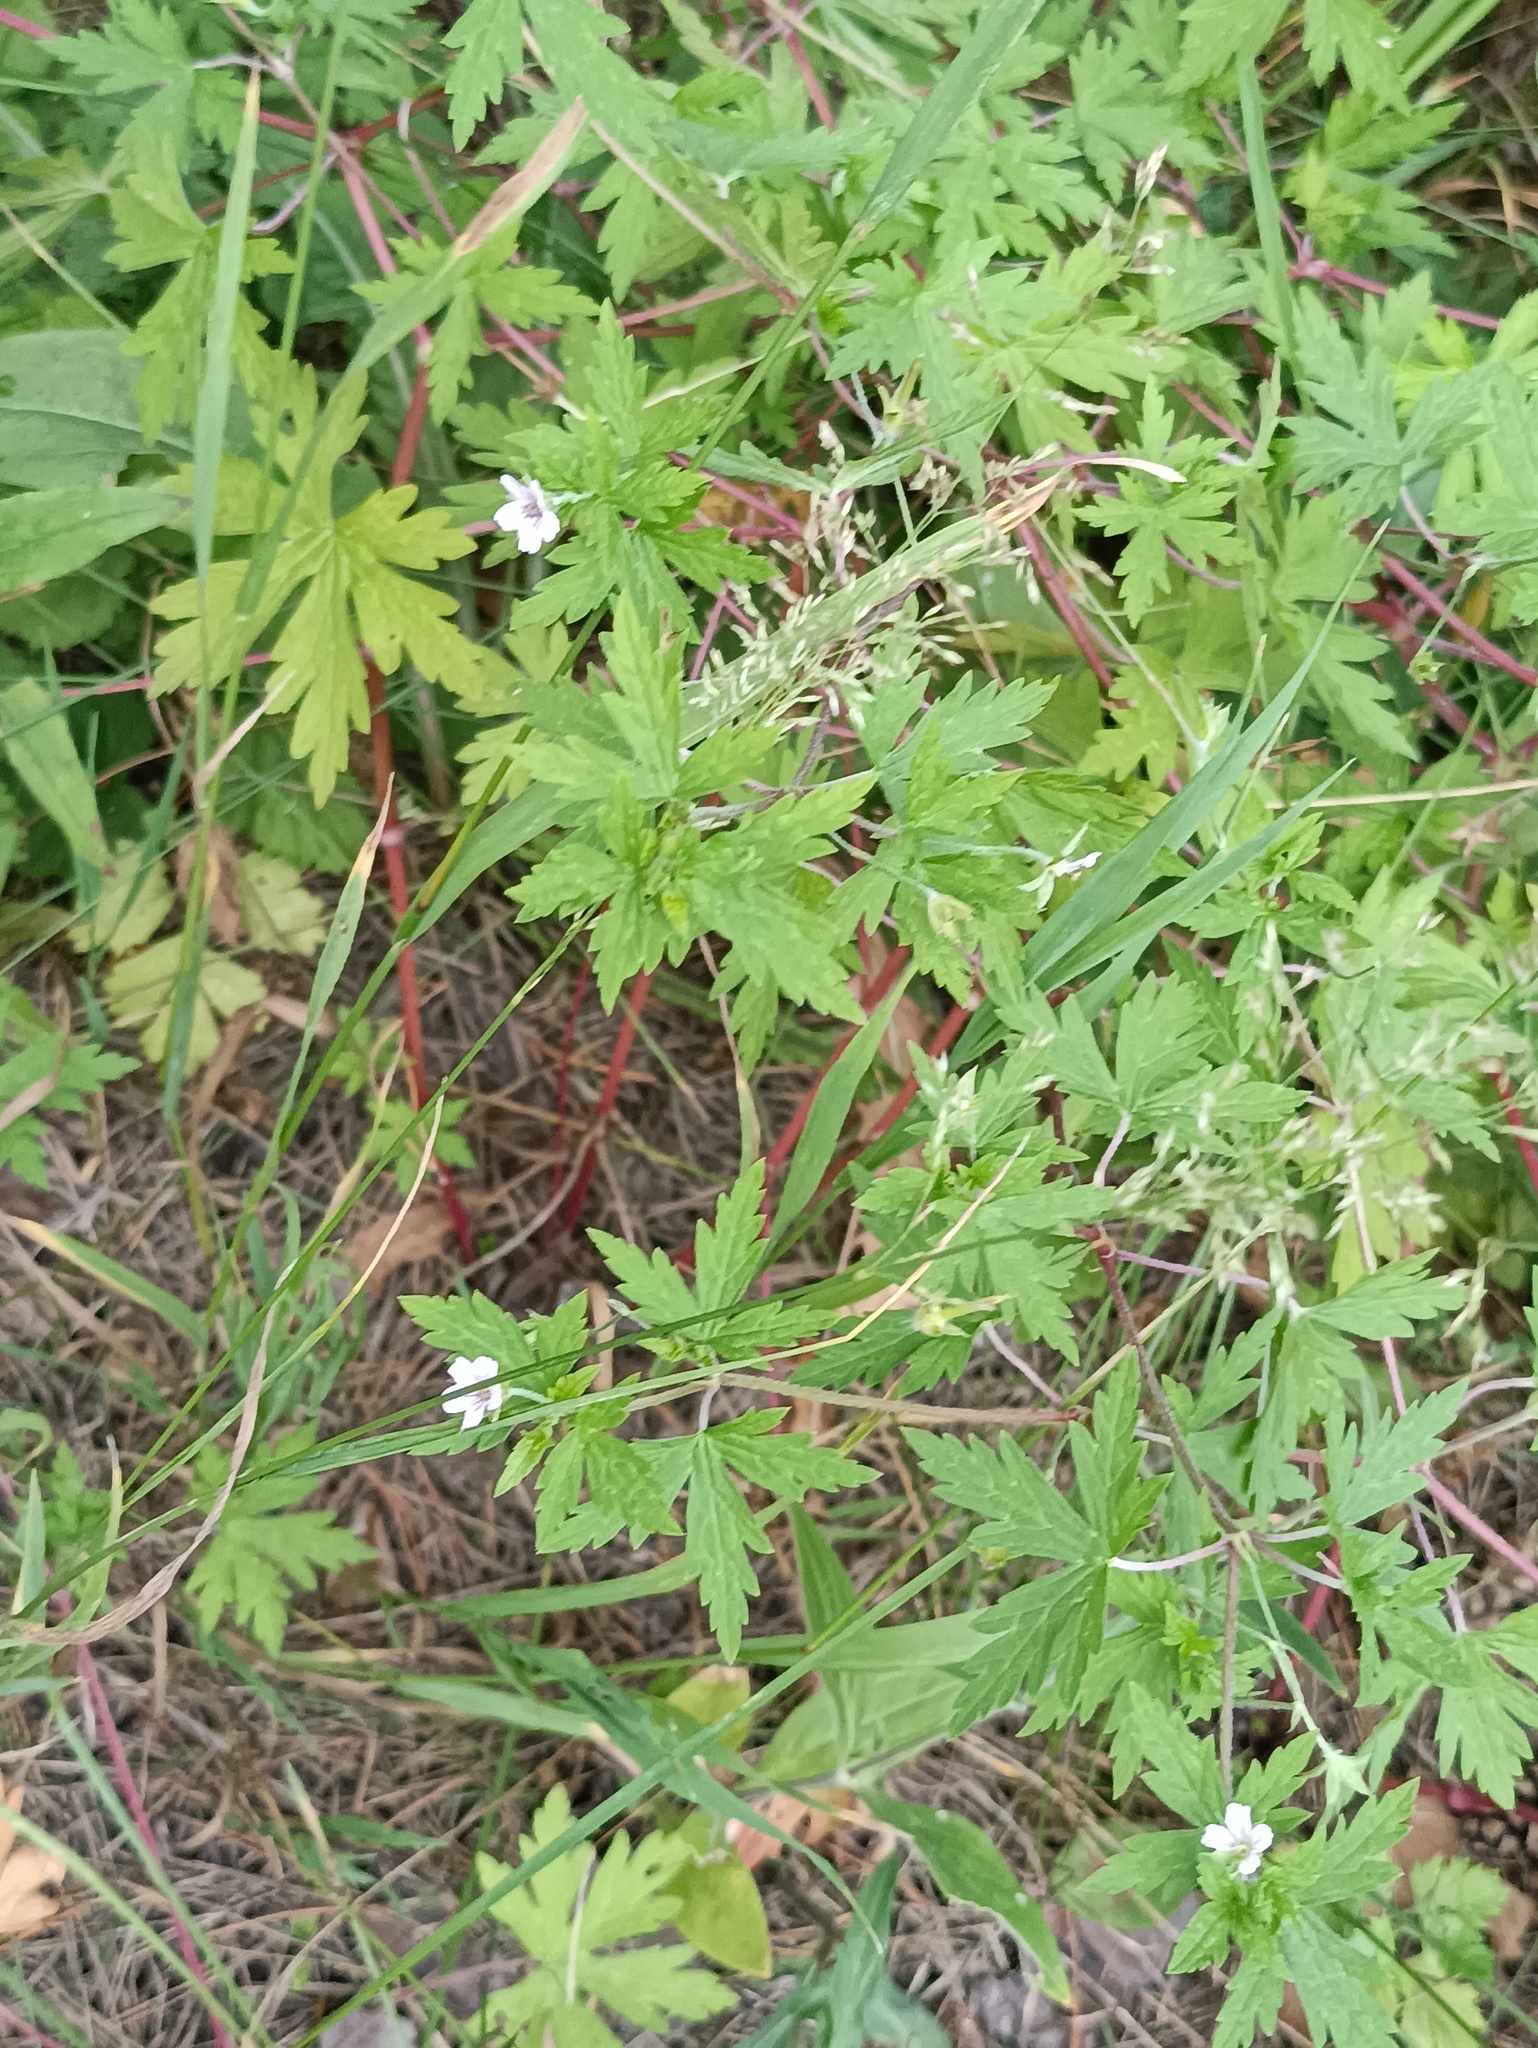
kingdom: Plantae
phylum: Tracheophyta
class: Magnoliopsida
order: Geraniales
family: Geraniaceae
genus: Geranium
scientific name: Geranium sibiricum
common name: Siberian crane's-bill
